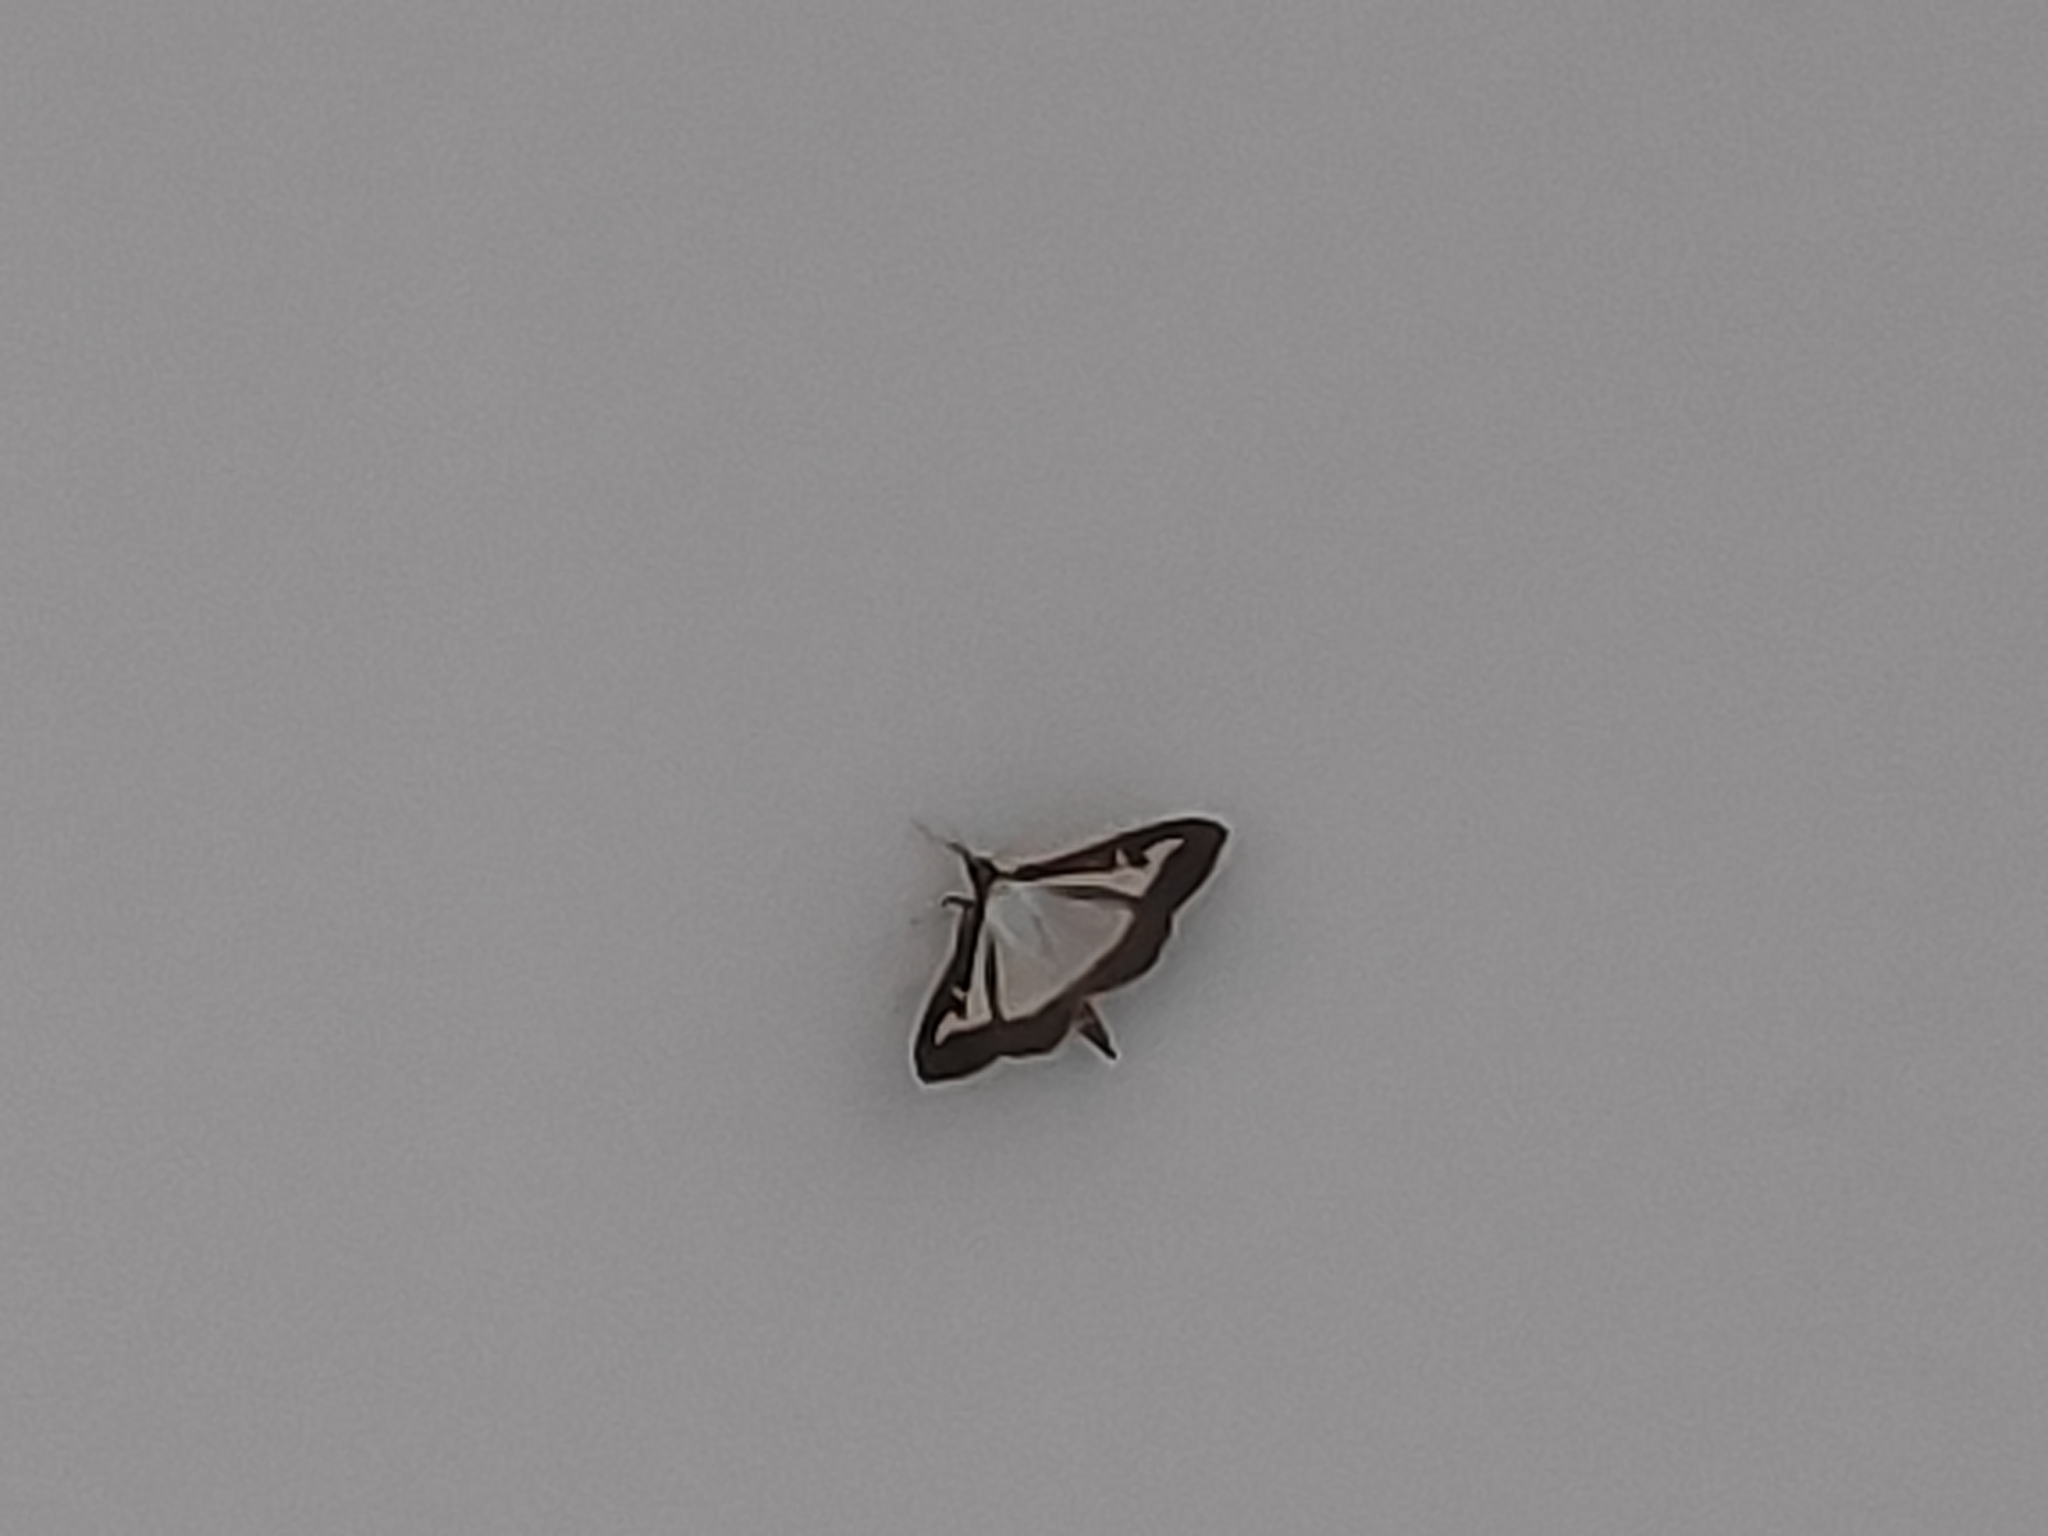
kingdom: Animalia
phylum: Arthropoda
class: Insecta
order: Lepidoptera
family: Crambidae
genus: Cydalima
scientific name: Cydalima perspectalis
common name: Box tree moth
